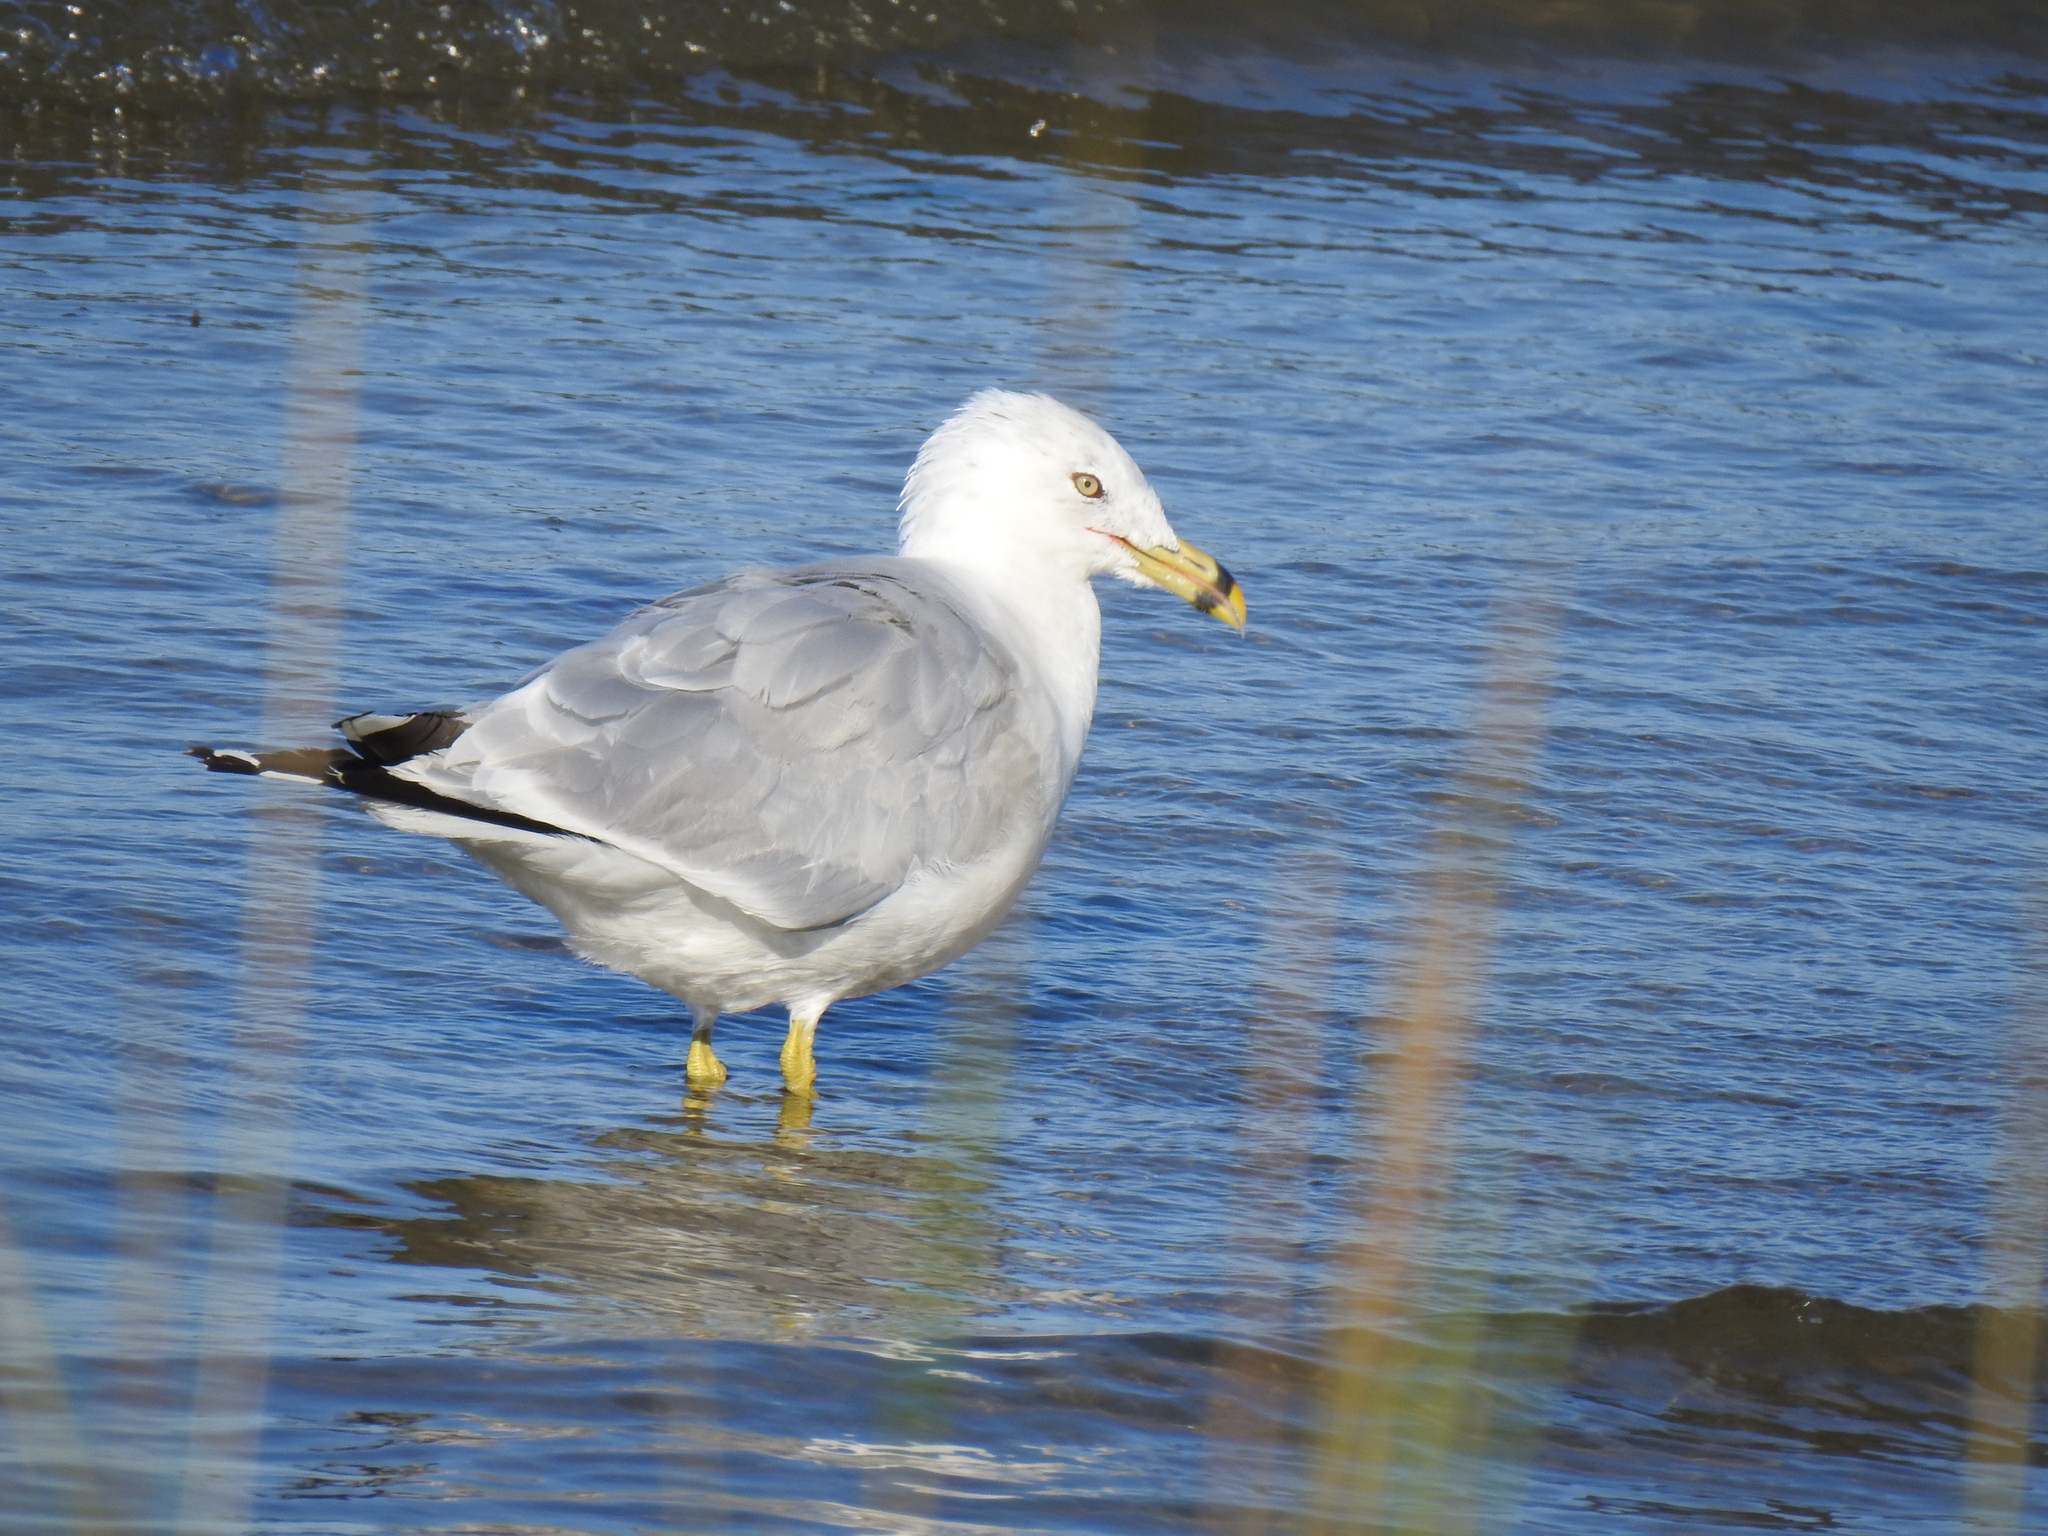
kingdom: Animalia
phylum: Chordata
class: Aves
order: Charadriiformes
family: Laridae
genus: Larus
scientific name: Larus delawarensis
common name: Ring-billed gull
